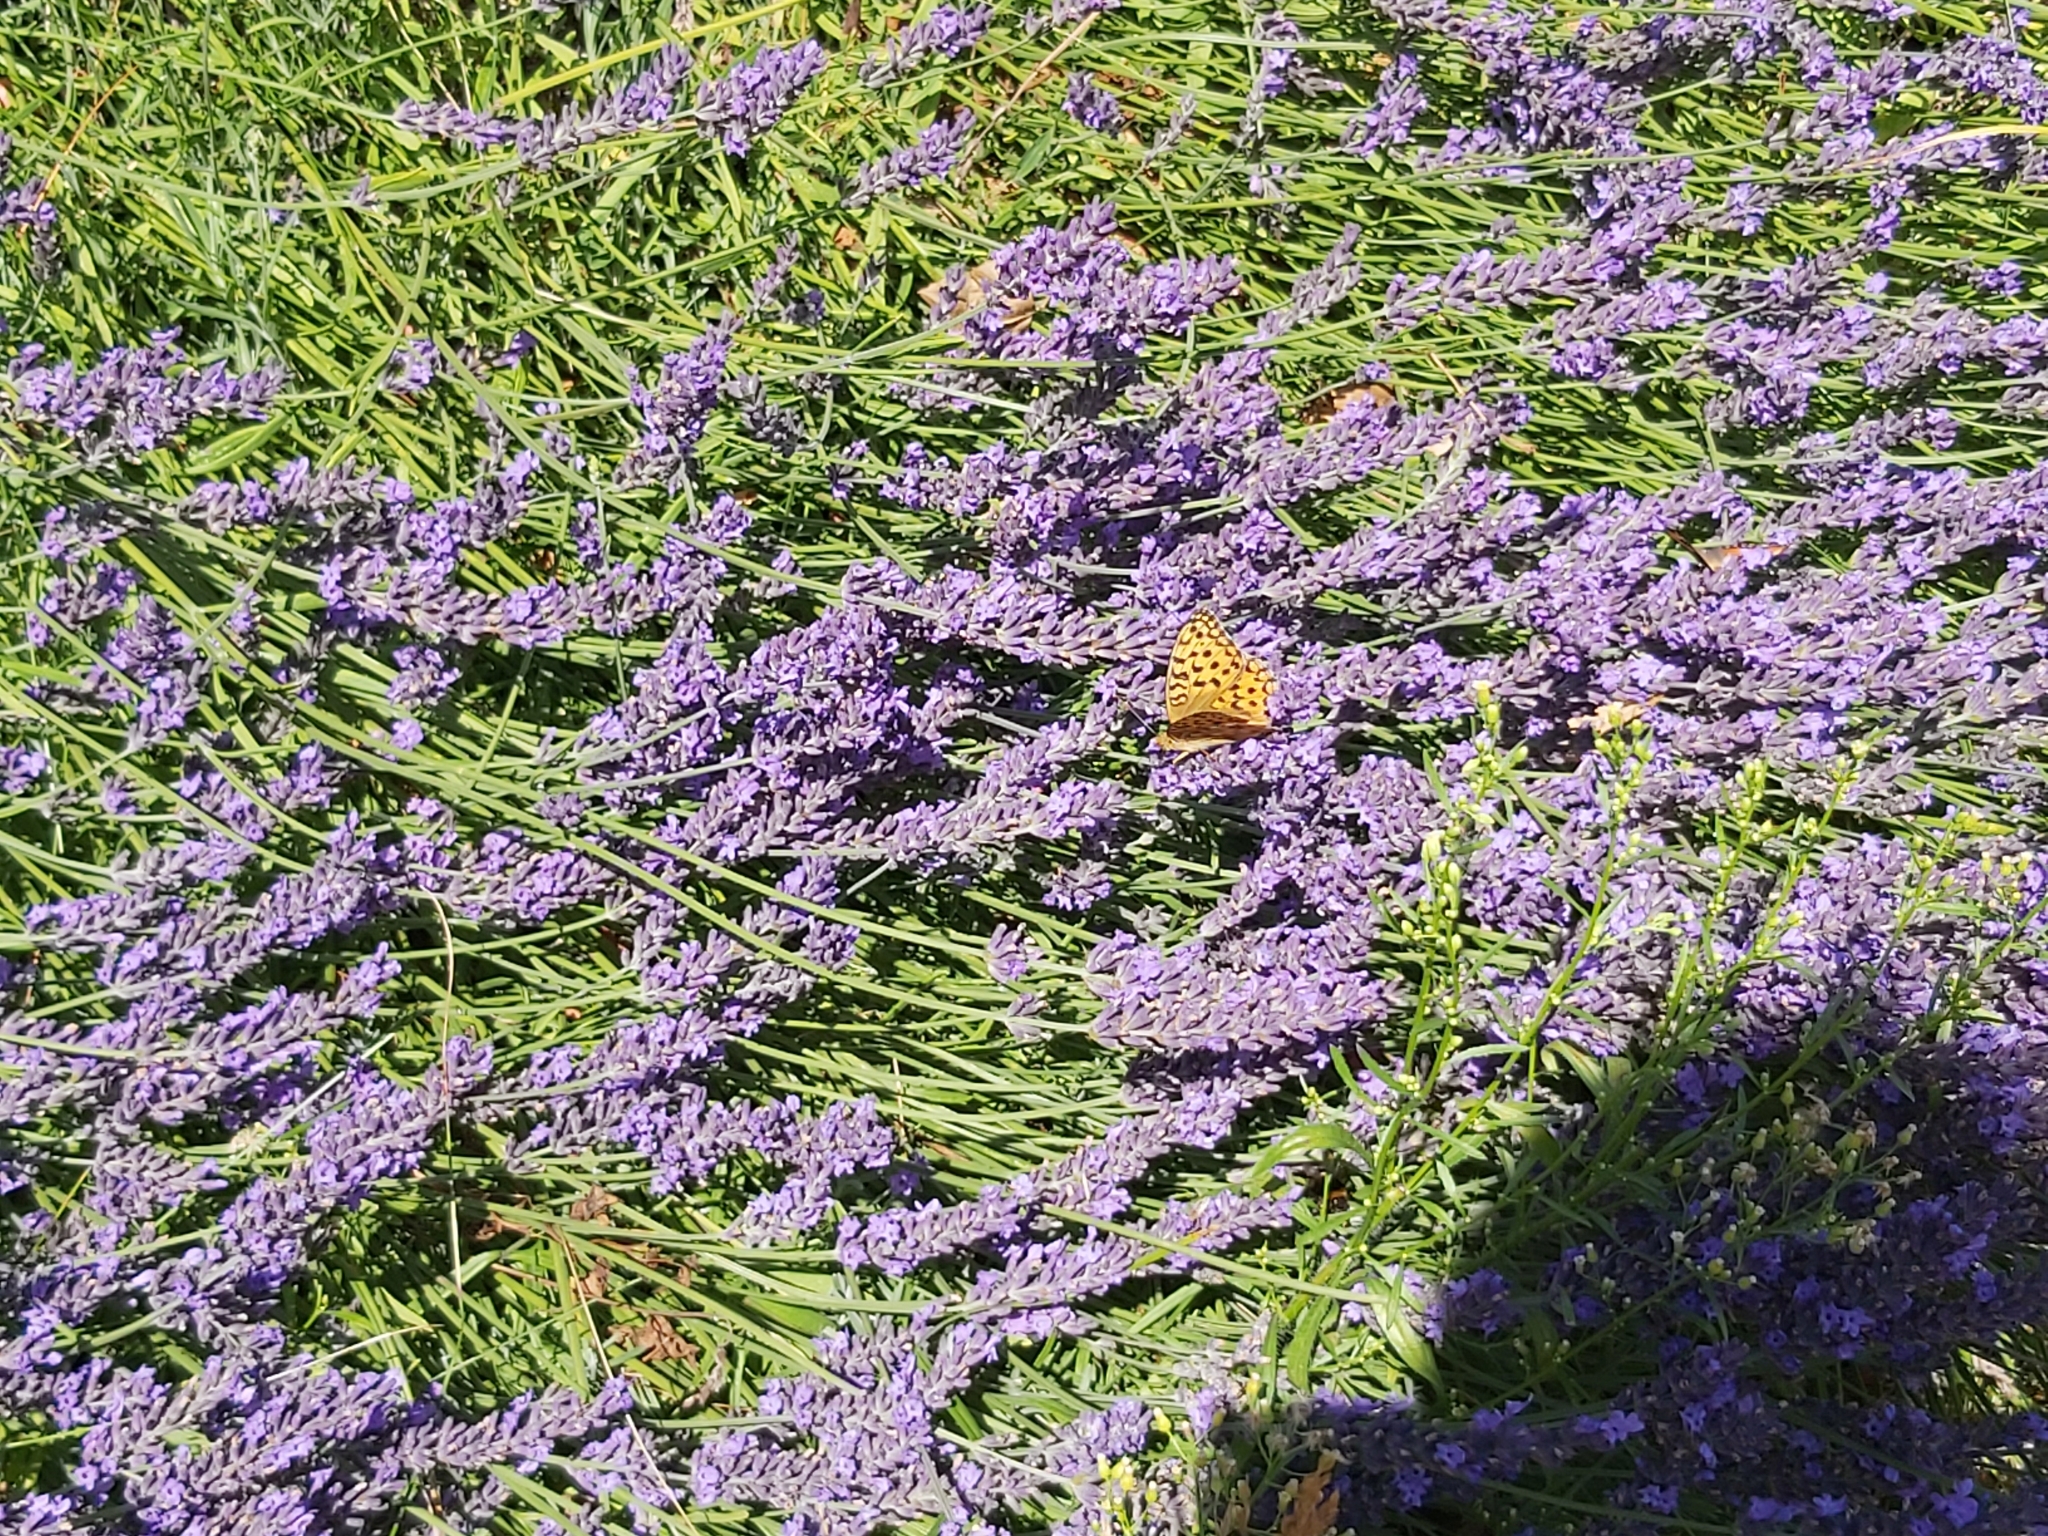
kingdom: Animalia
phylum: Arthropoda
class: Insecta
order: Lepidoptera
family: Nymphalidae
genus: Fabriciana
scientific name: Fabriciana adippe
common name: High brown fritillary
